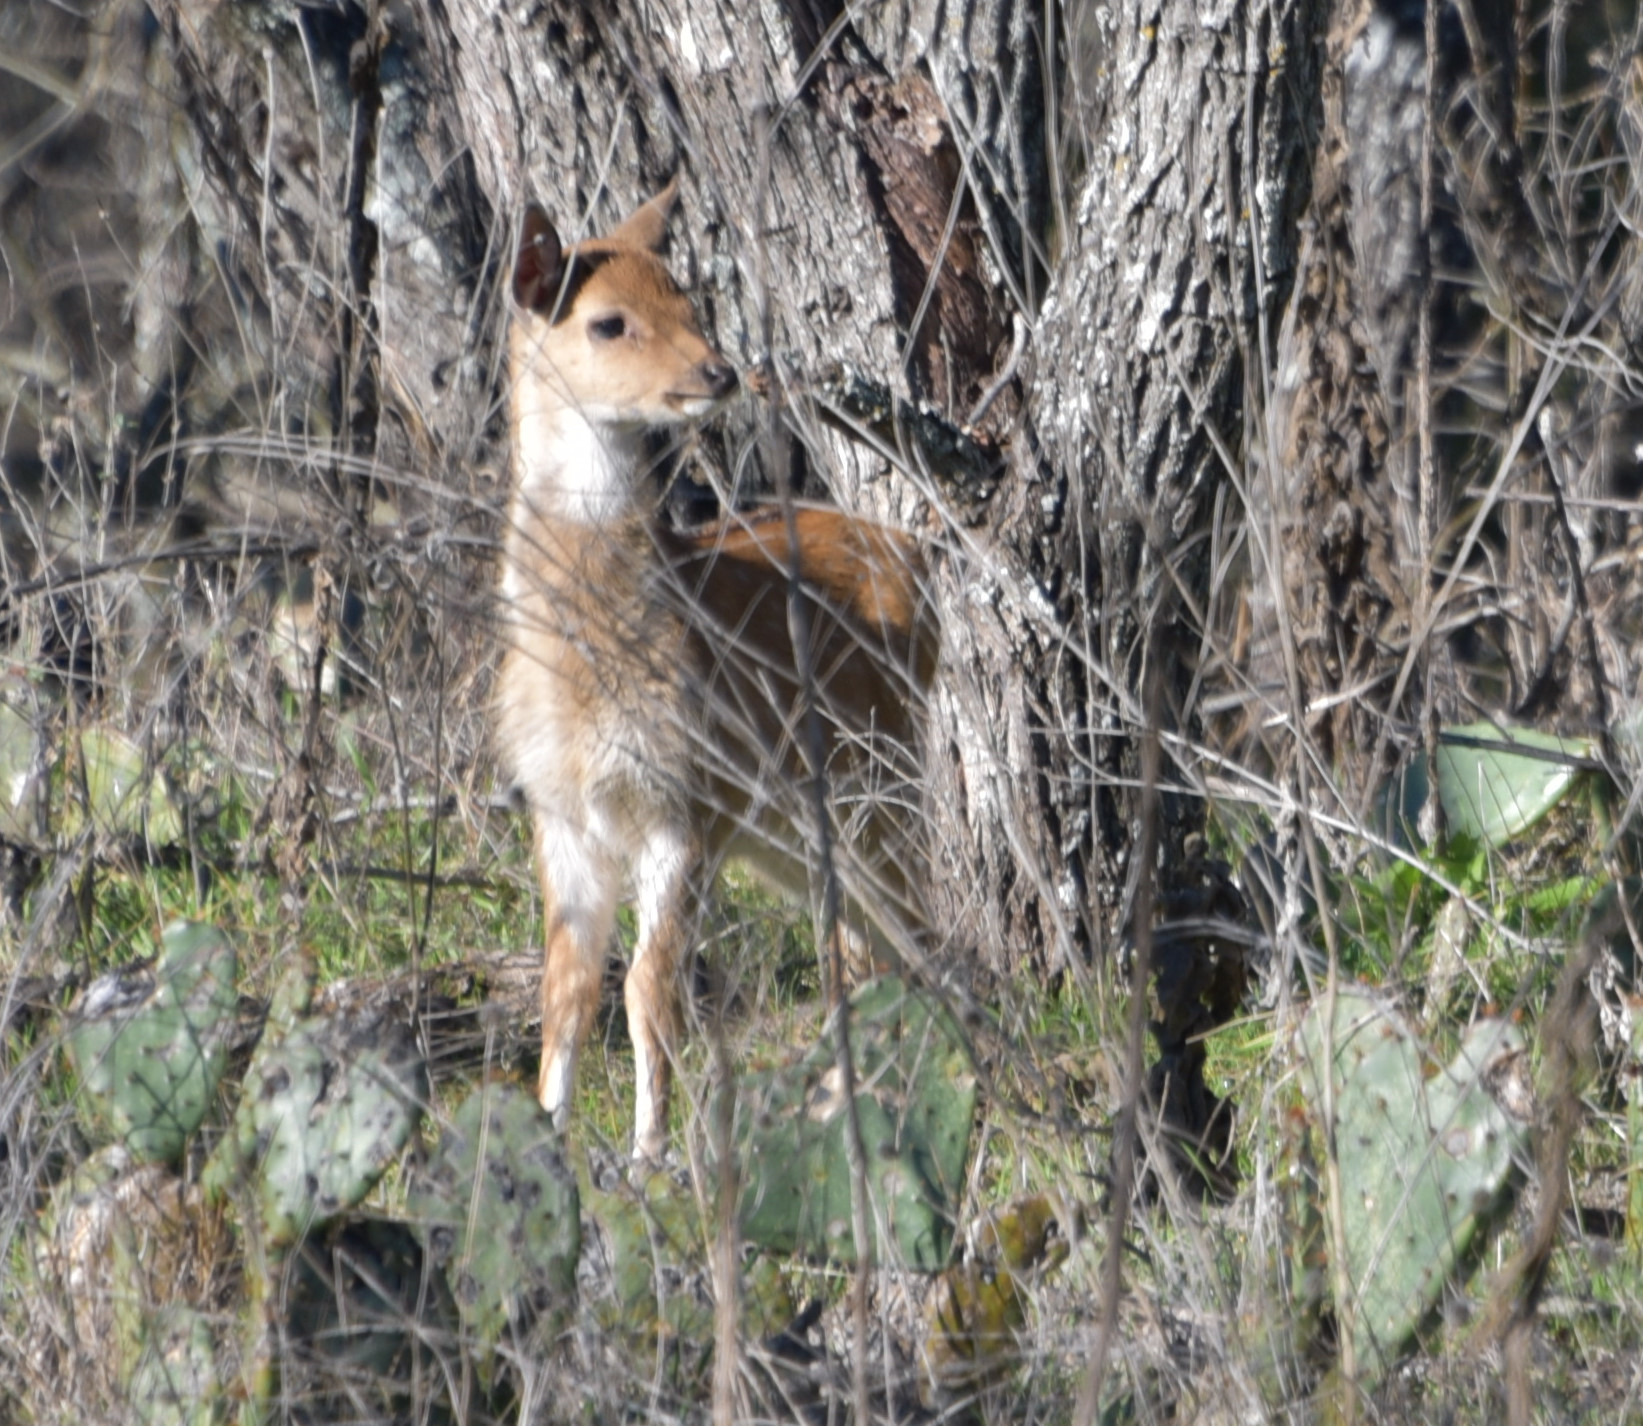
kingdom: Animalia
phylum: Chordata
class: Mammalia
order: Artiodactyla
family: Cervidae
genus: Axis
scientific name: Axis axis
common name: Chital
